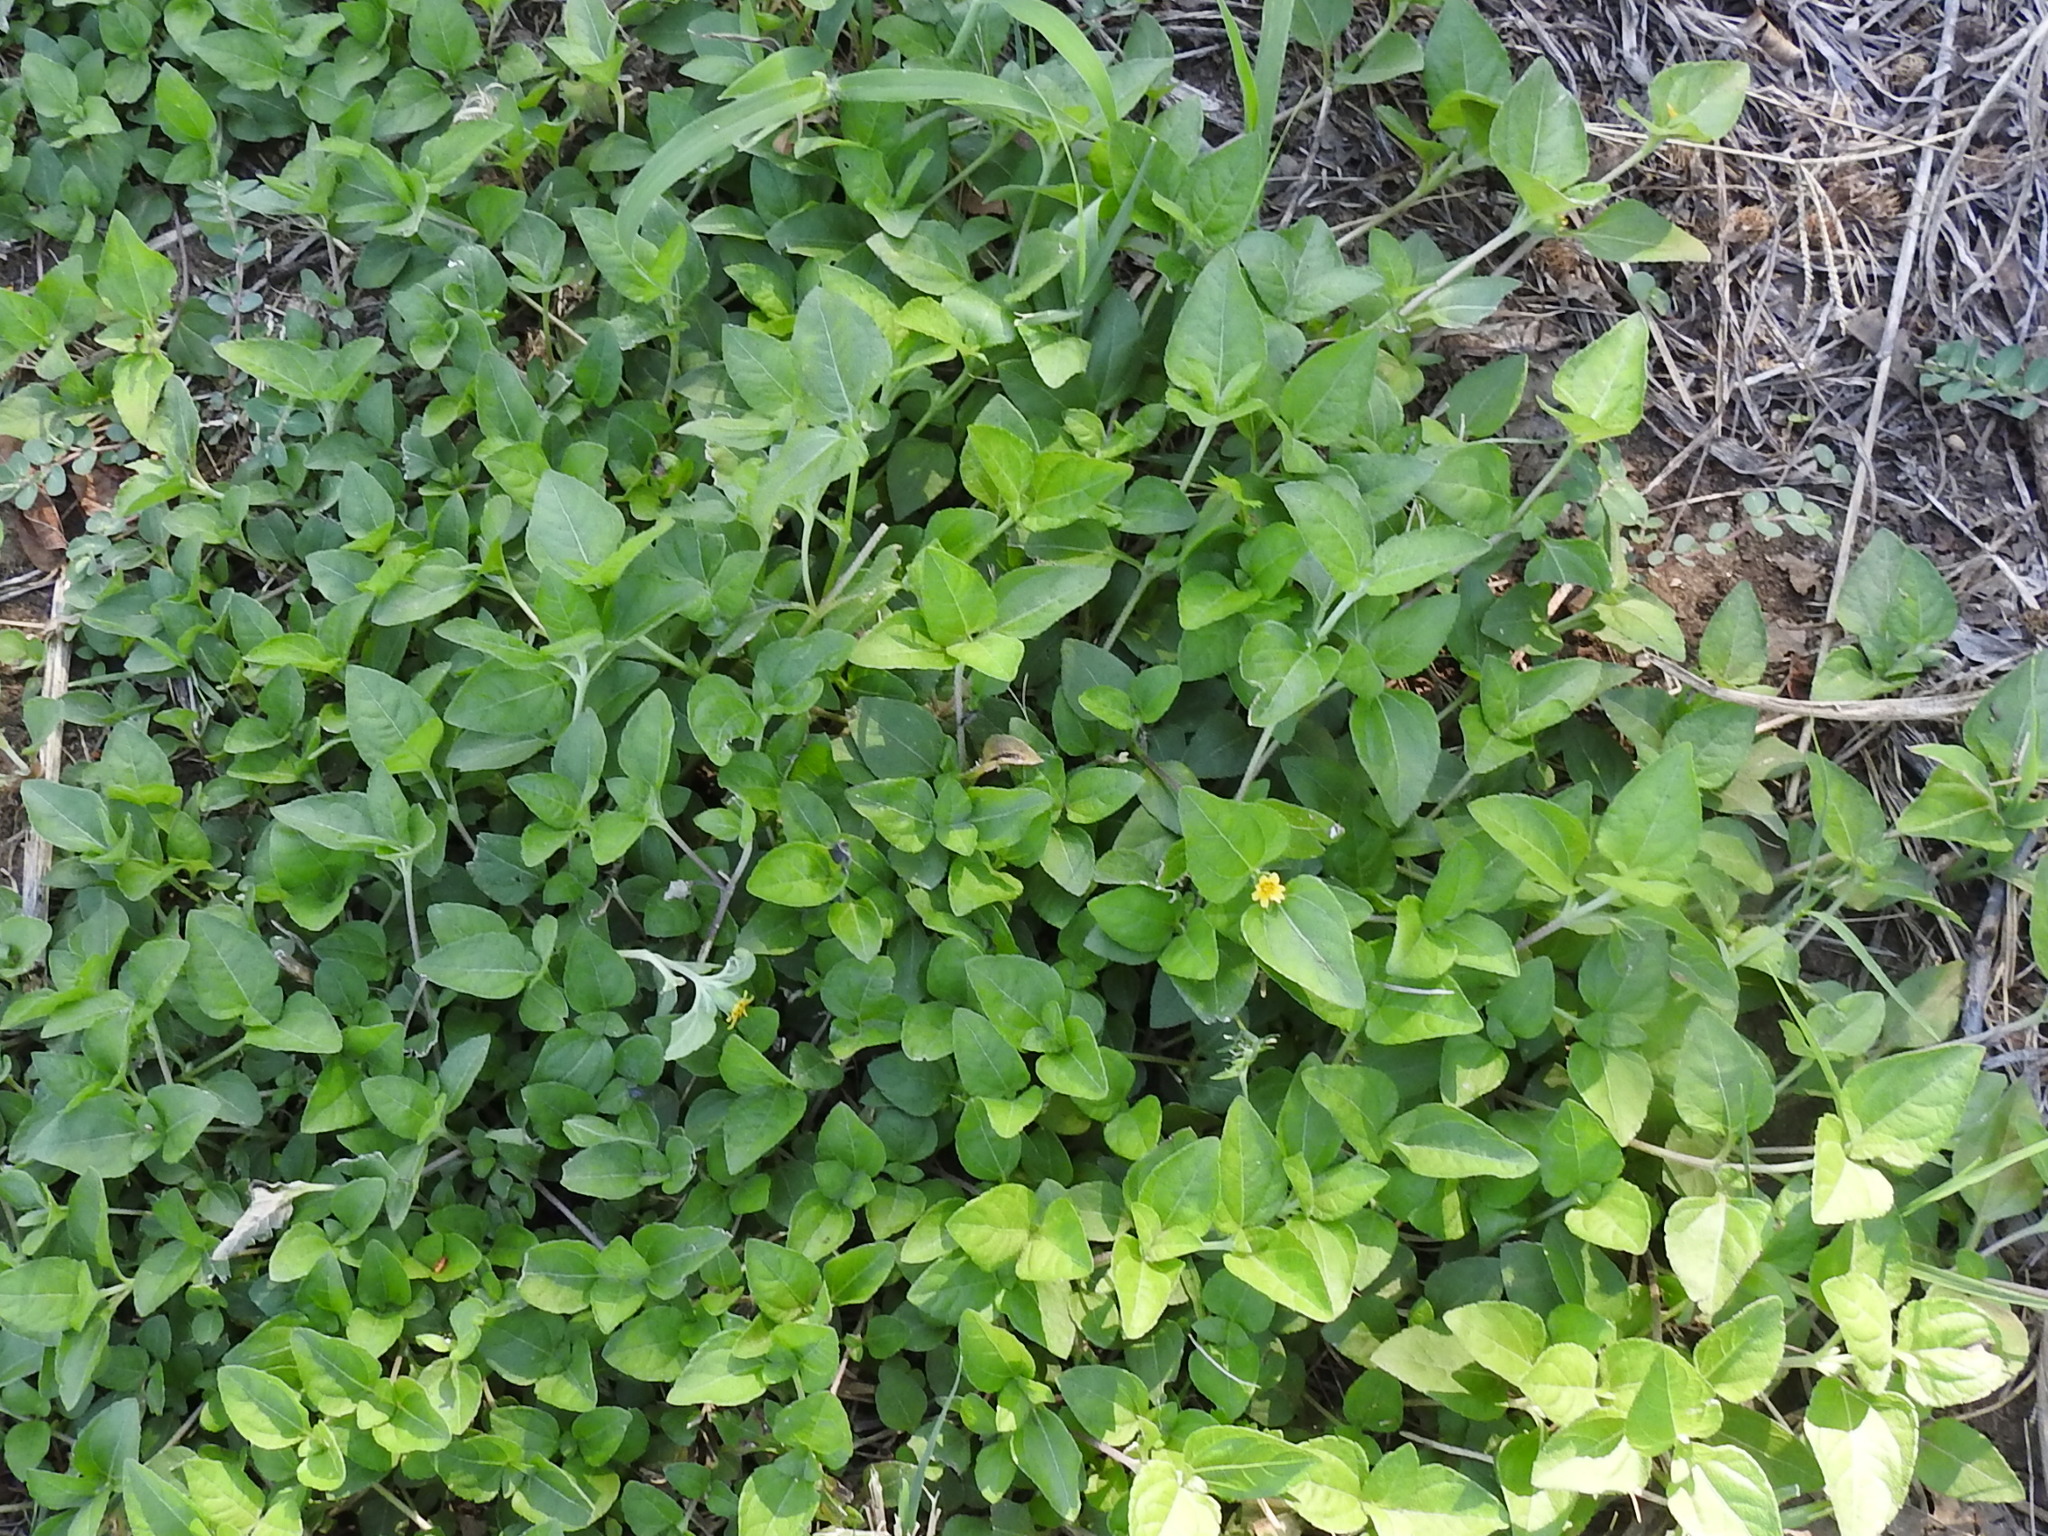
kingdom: Plantae
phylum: Tracheophyta
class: Magnoliopsida
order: Asterales
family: Asteraceae
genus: Calyptocarpus
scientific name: Calyptocarpus vialis
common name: Straggler daisy
